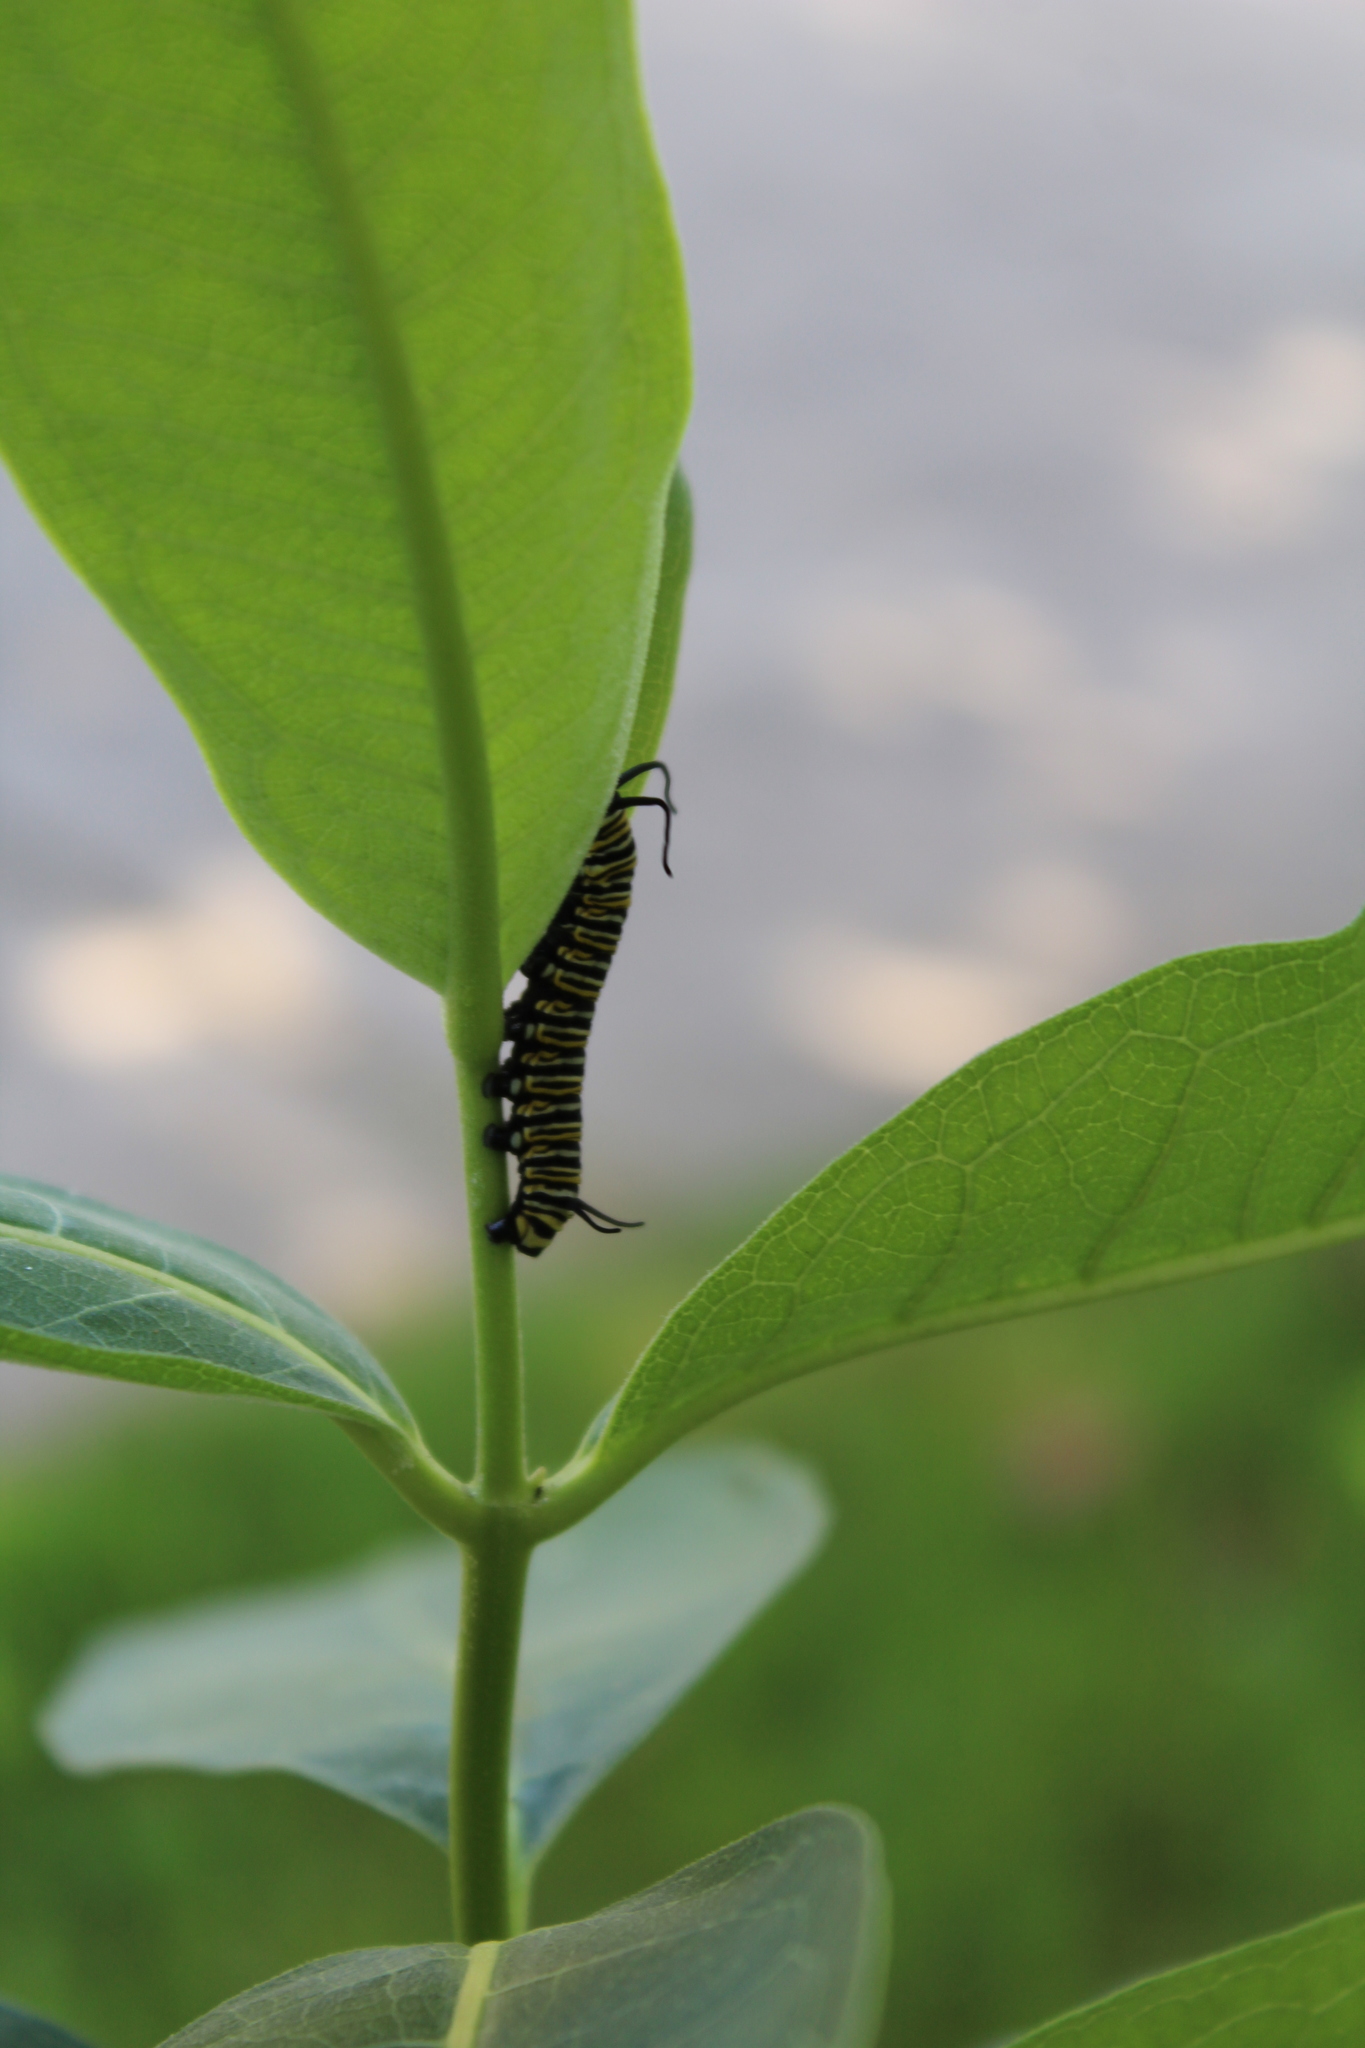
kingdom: Animalia
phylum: Arthropoda
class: Insecta
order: Lepidoptera
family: Nymphalidae
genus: Danaus
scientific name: Danaus plexippus
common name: Monarch
